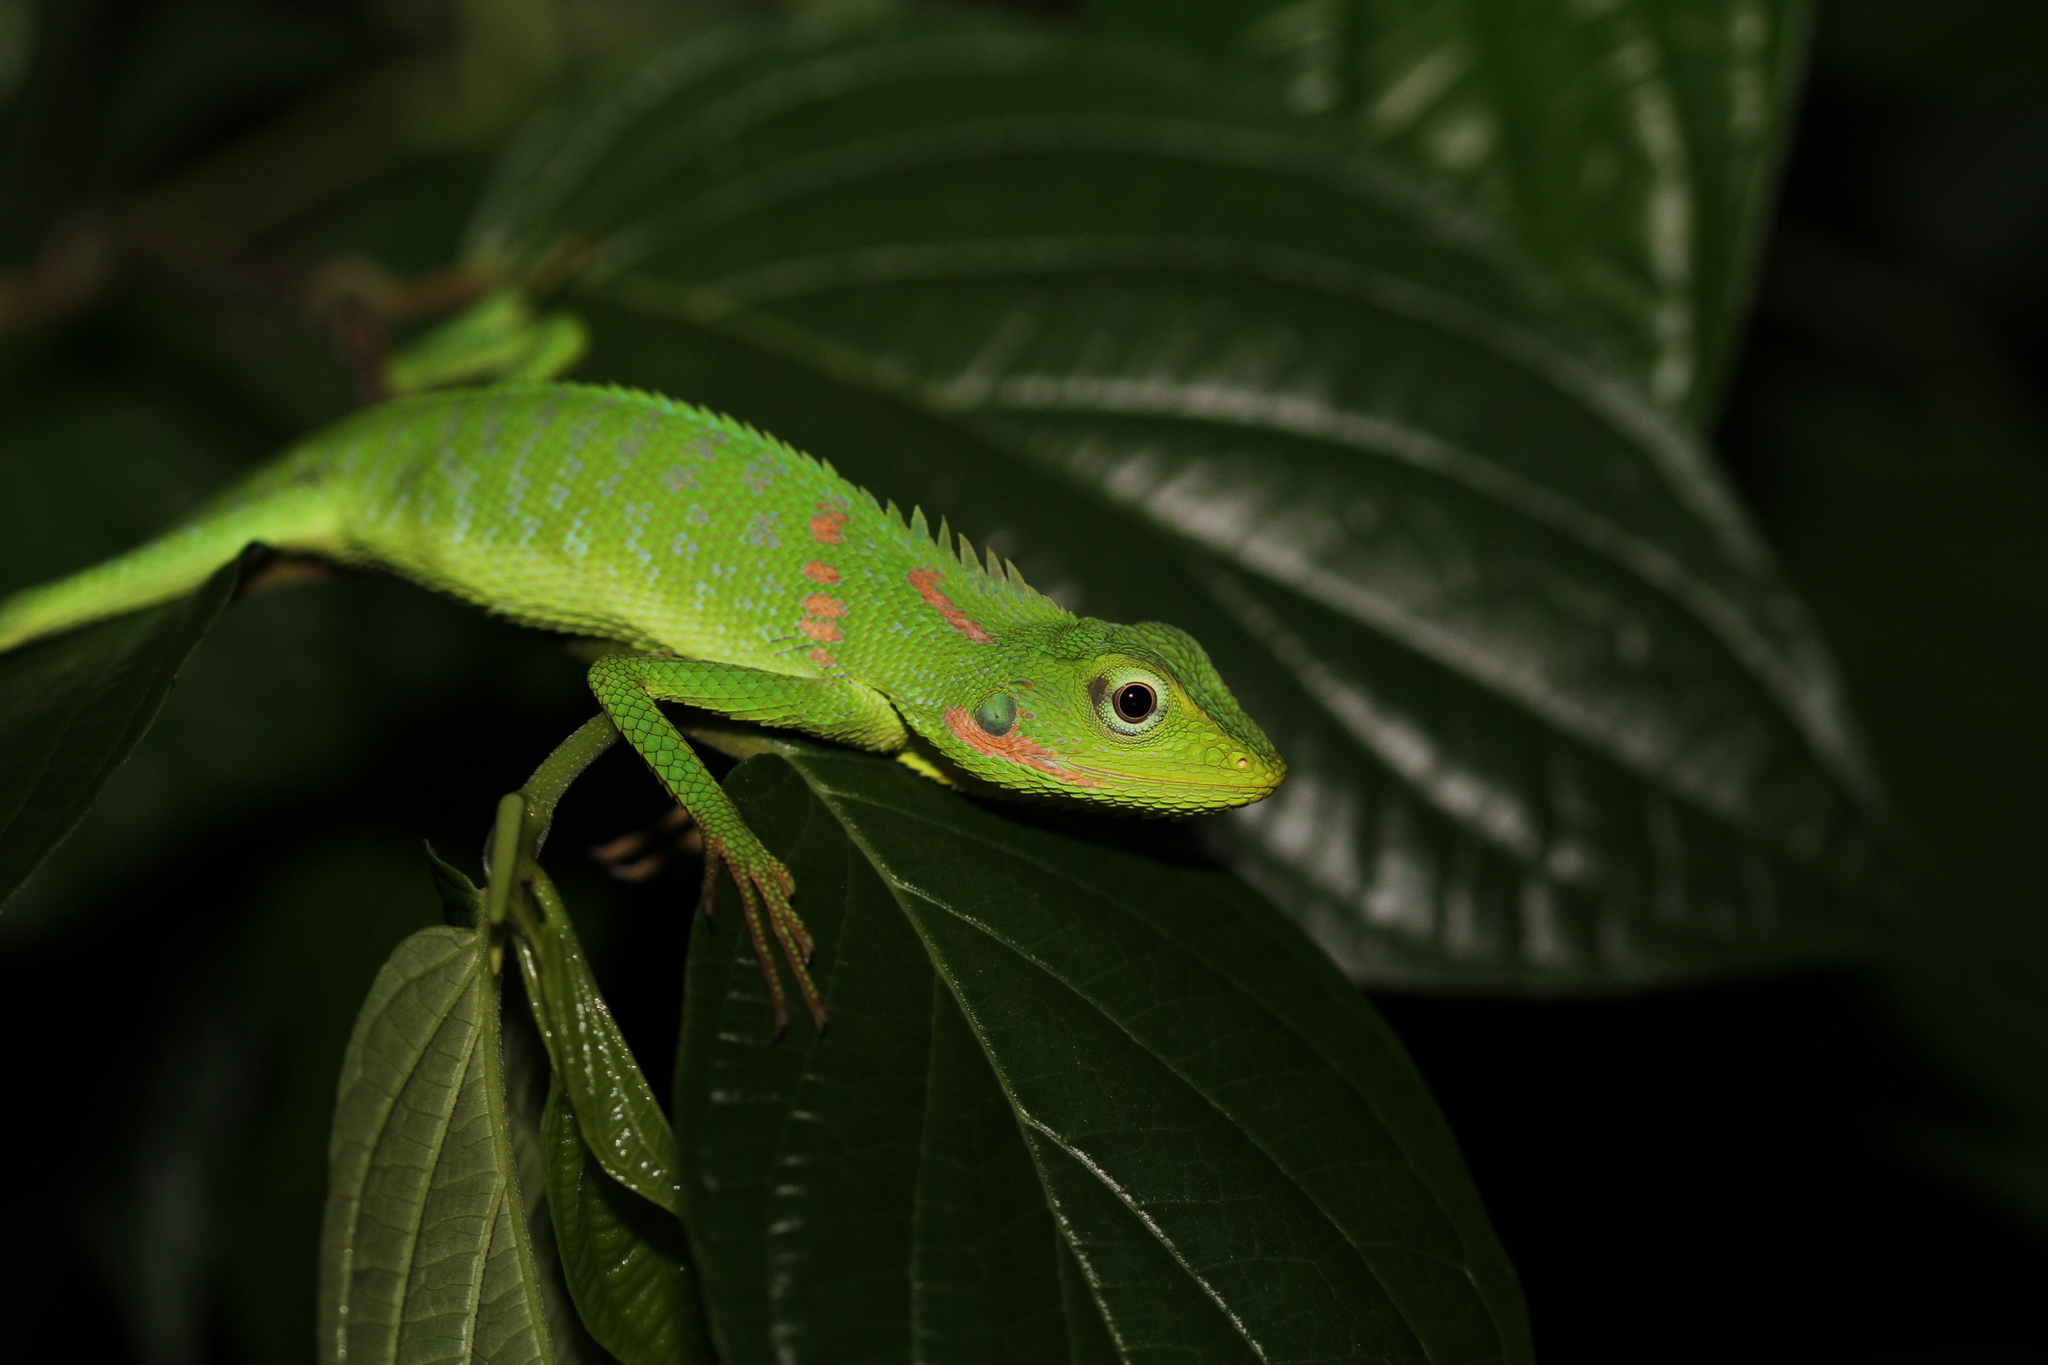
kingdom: Animalia
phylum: Chordata
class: Squamata
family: Agamidae
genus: Bronchocela
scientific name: Bronchocela jubata
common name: Maned forest lizard
